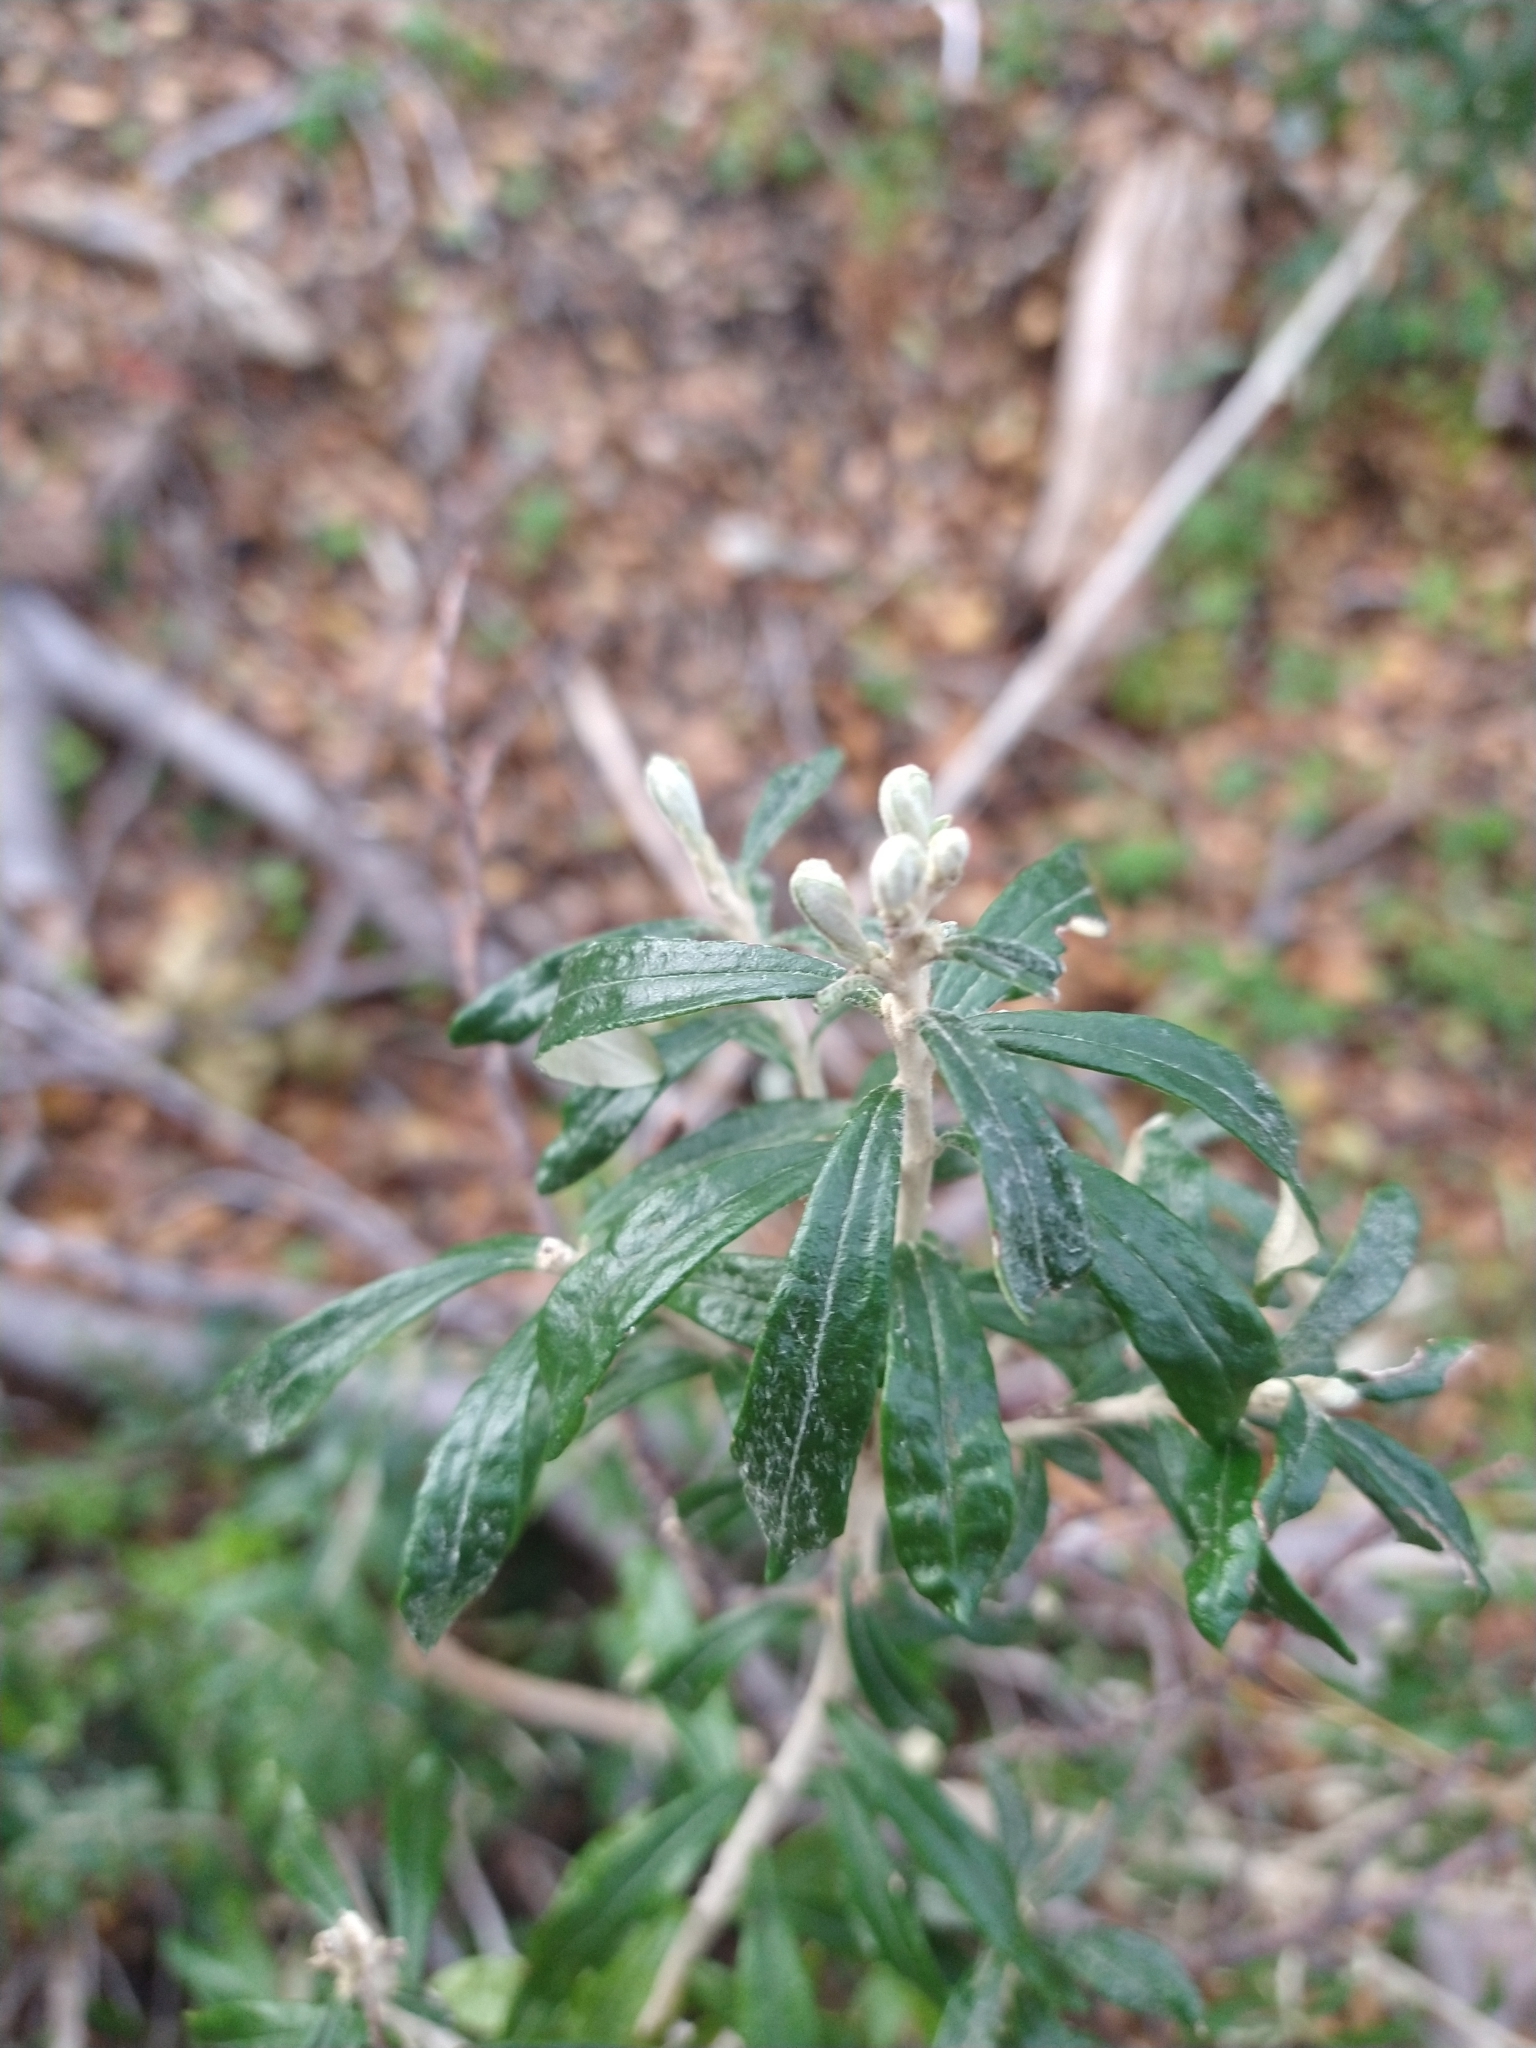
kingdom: Plantae
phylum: Tracheophyta
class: Magnoliopsida
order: Asterales
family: Asteraceae
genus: Chiliotrichum
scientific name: Chiliotrichum diffusum
